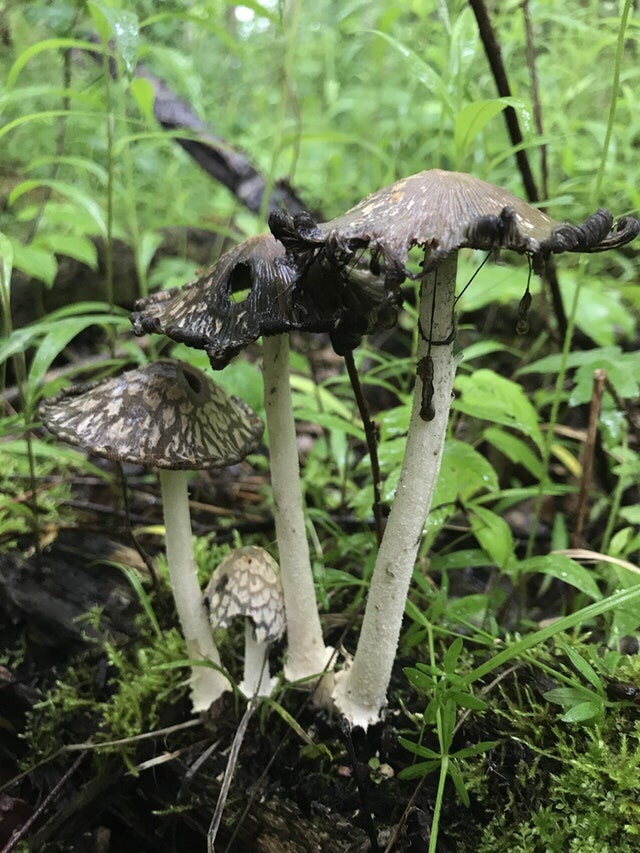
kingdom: Fungi
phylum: Basidiomycota
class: Agaricomycetes
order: Agaricales
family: Psathyrellaceae
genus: Coprinopsis
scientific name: Coprinopsis variegata
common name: Scaly ink cap
